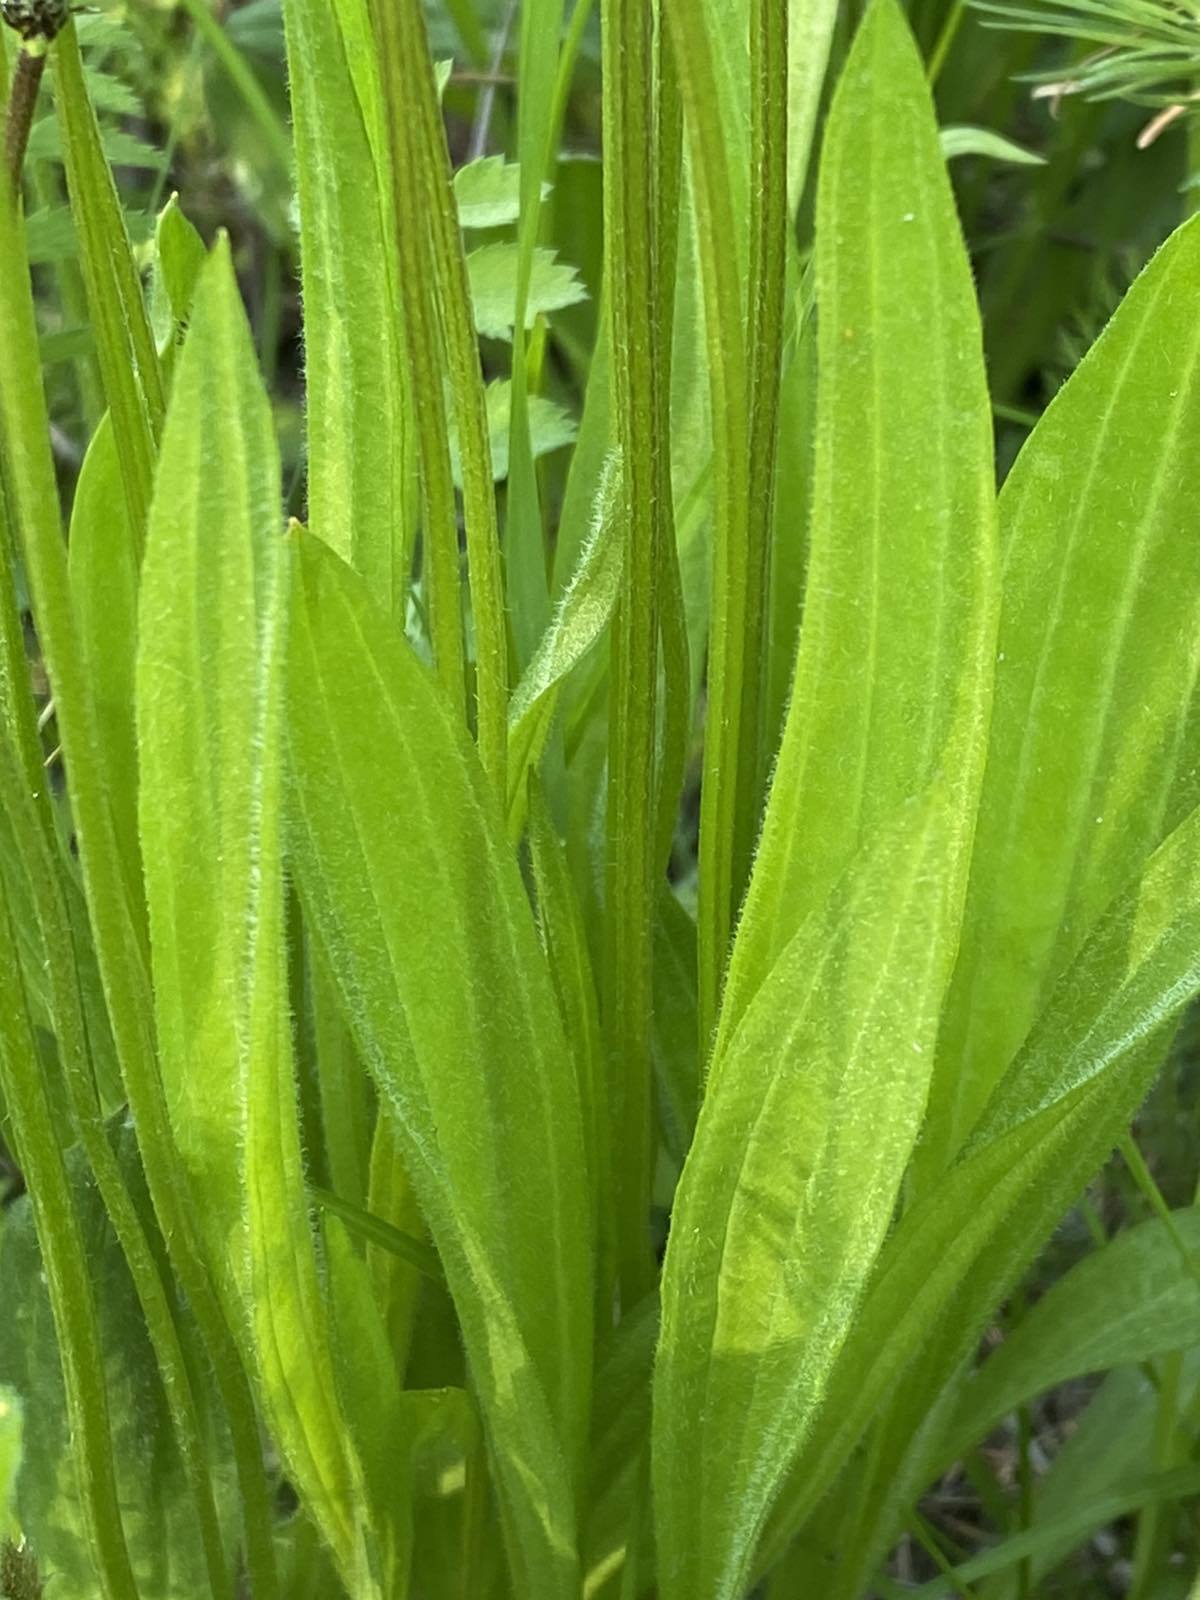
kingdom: Plantae
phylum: Tracheophyta
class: Magnoliopsida
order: Lamiales
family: Plantaginaceae
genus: Plantago
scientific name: Plantago lanceolata
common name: Ribwort plantain
